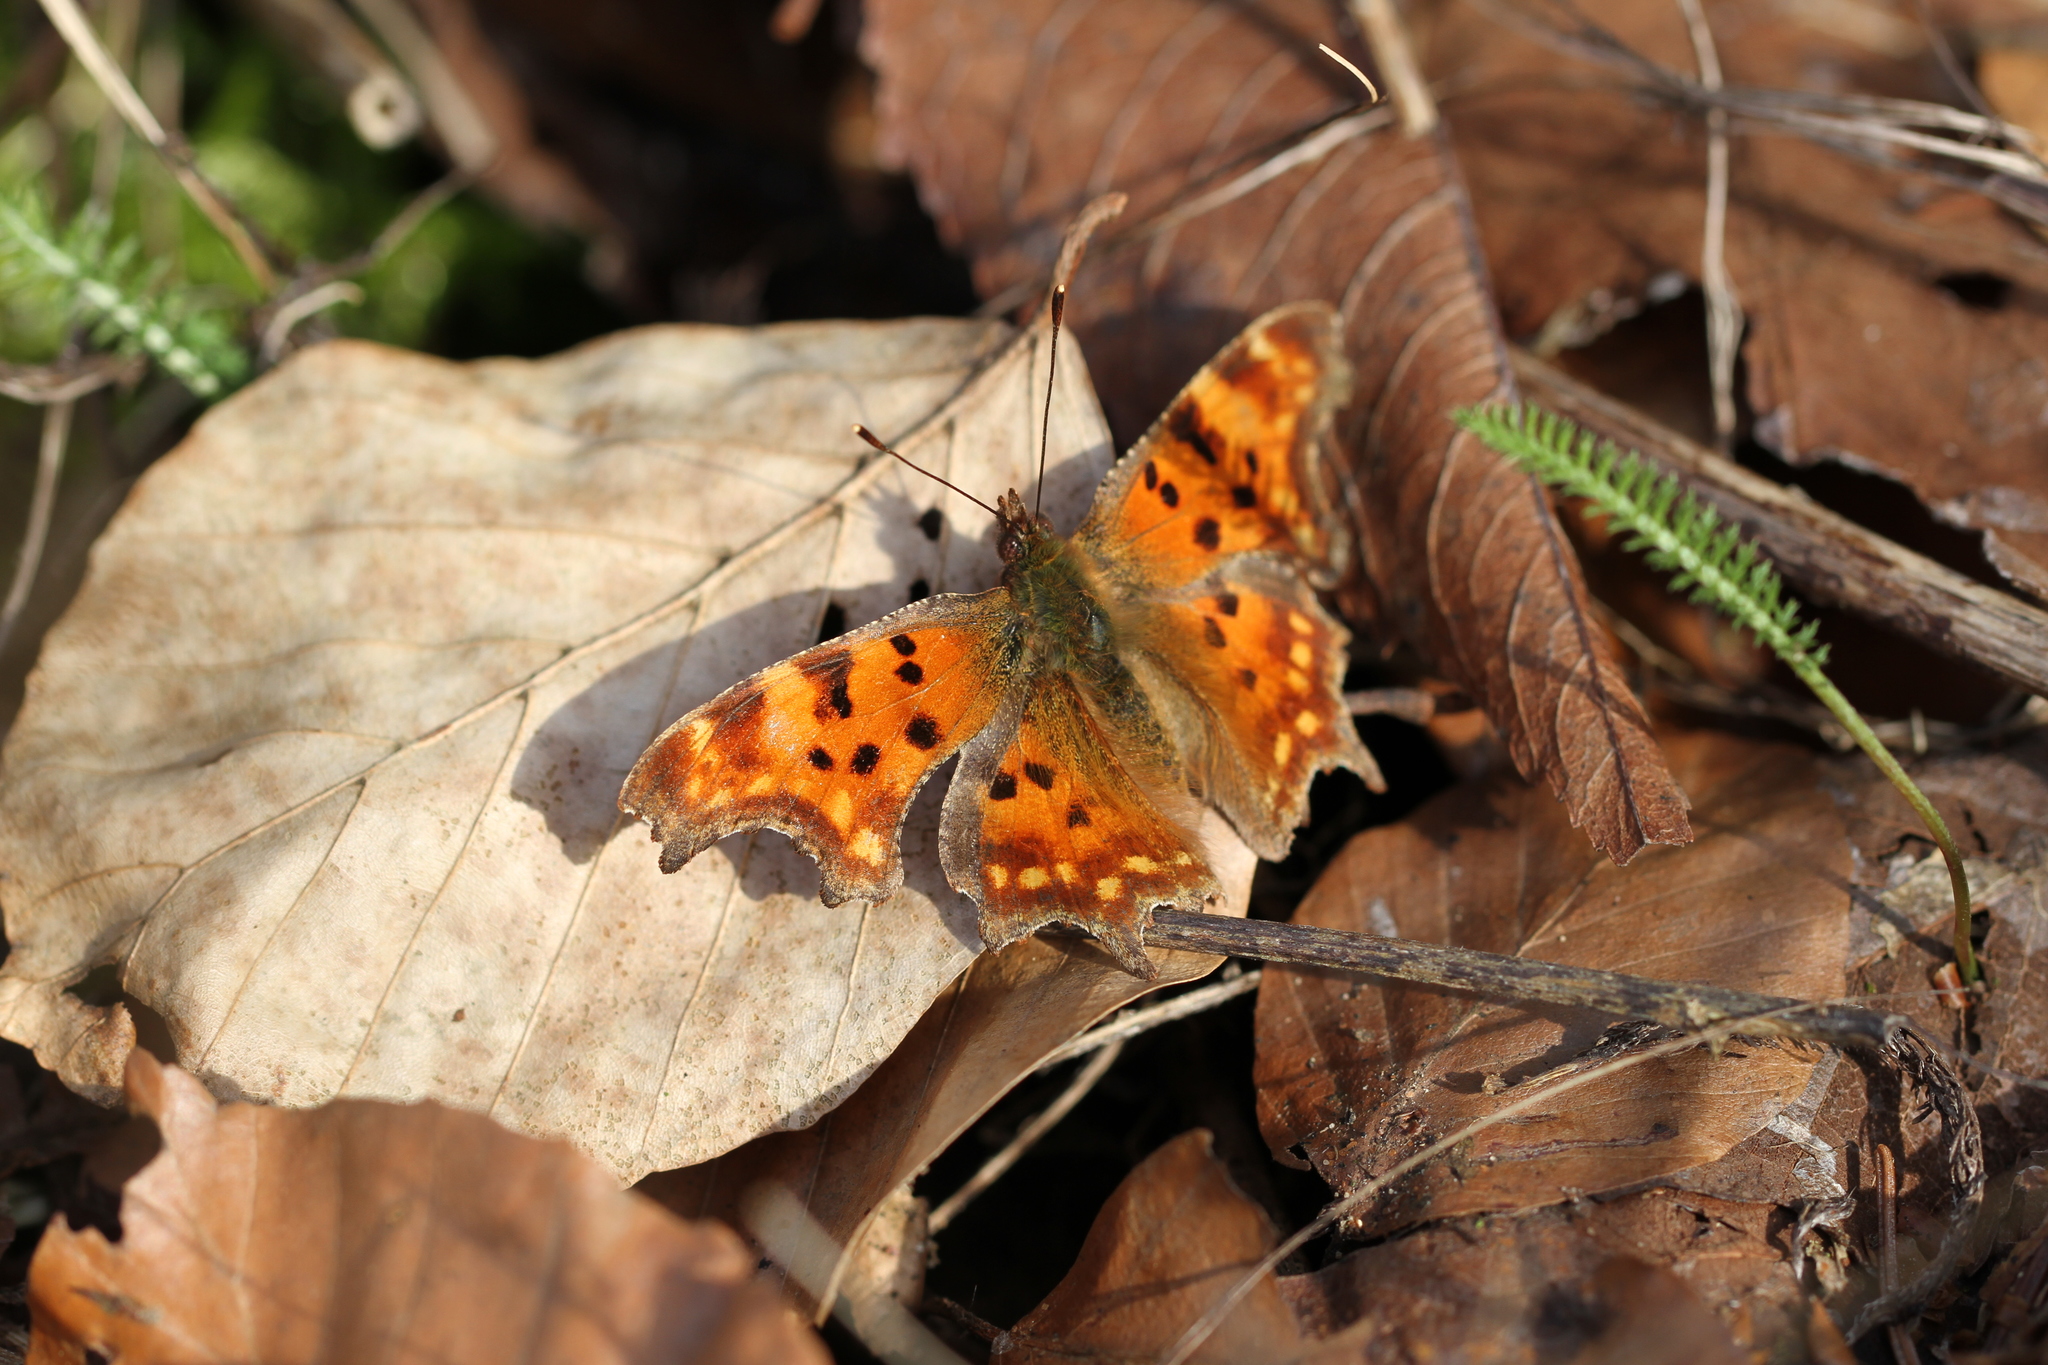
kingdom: Animalia
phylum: Arthropoda
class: Insecta
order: Lepidoptera
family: Nymphalidae
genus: Polygonia
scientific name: Polygonia c-album
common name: Comma
